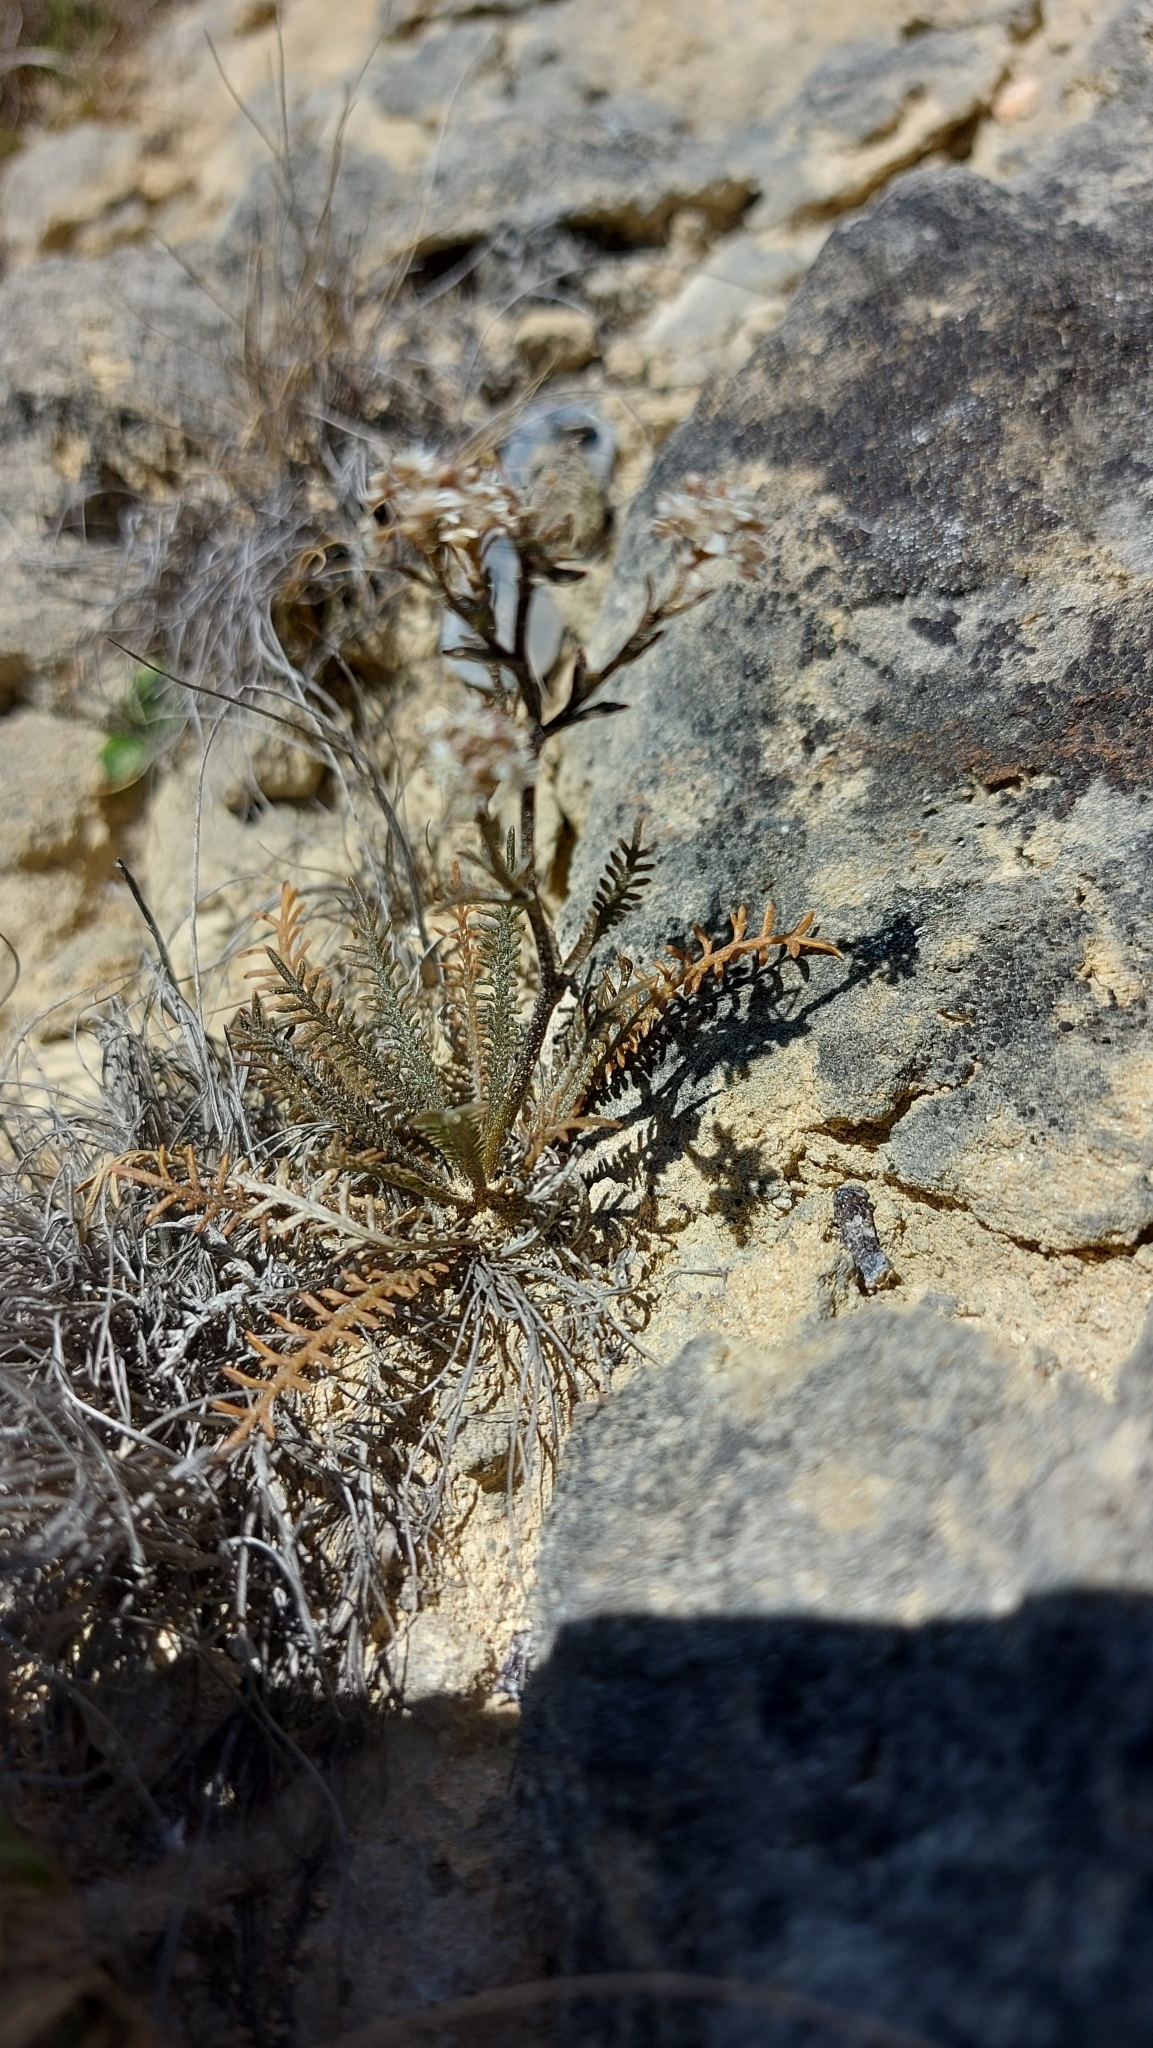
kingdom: Plantae
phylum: Tracheophyta
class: Magnoliopsida
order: Brassicales
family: Brassicaceae
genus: Lepidium
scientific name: Lepidium sisymbrioides
